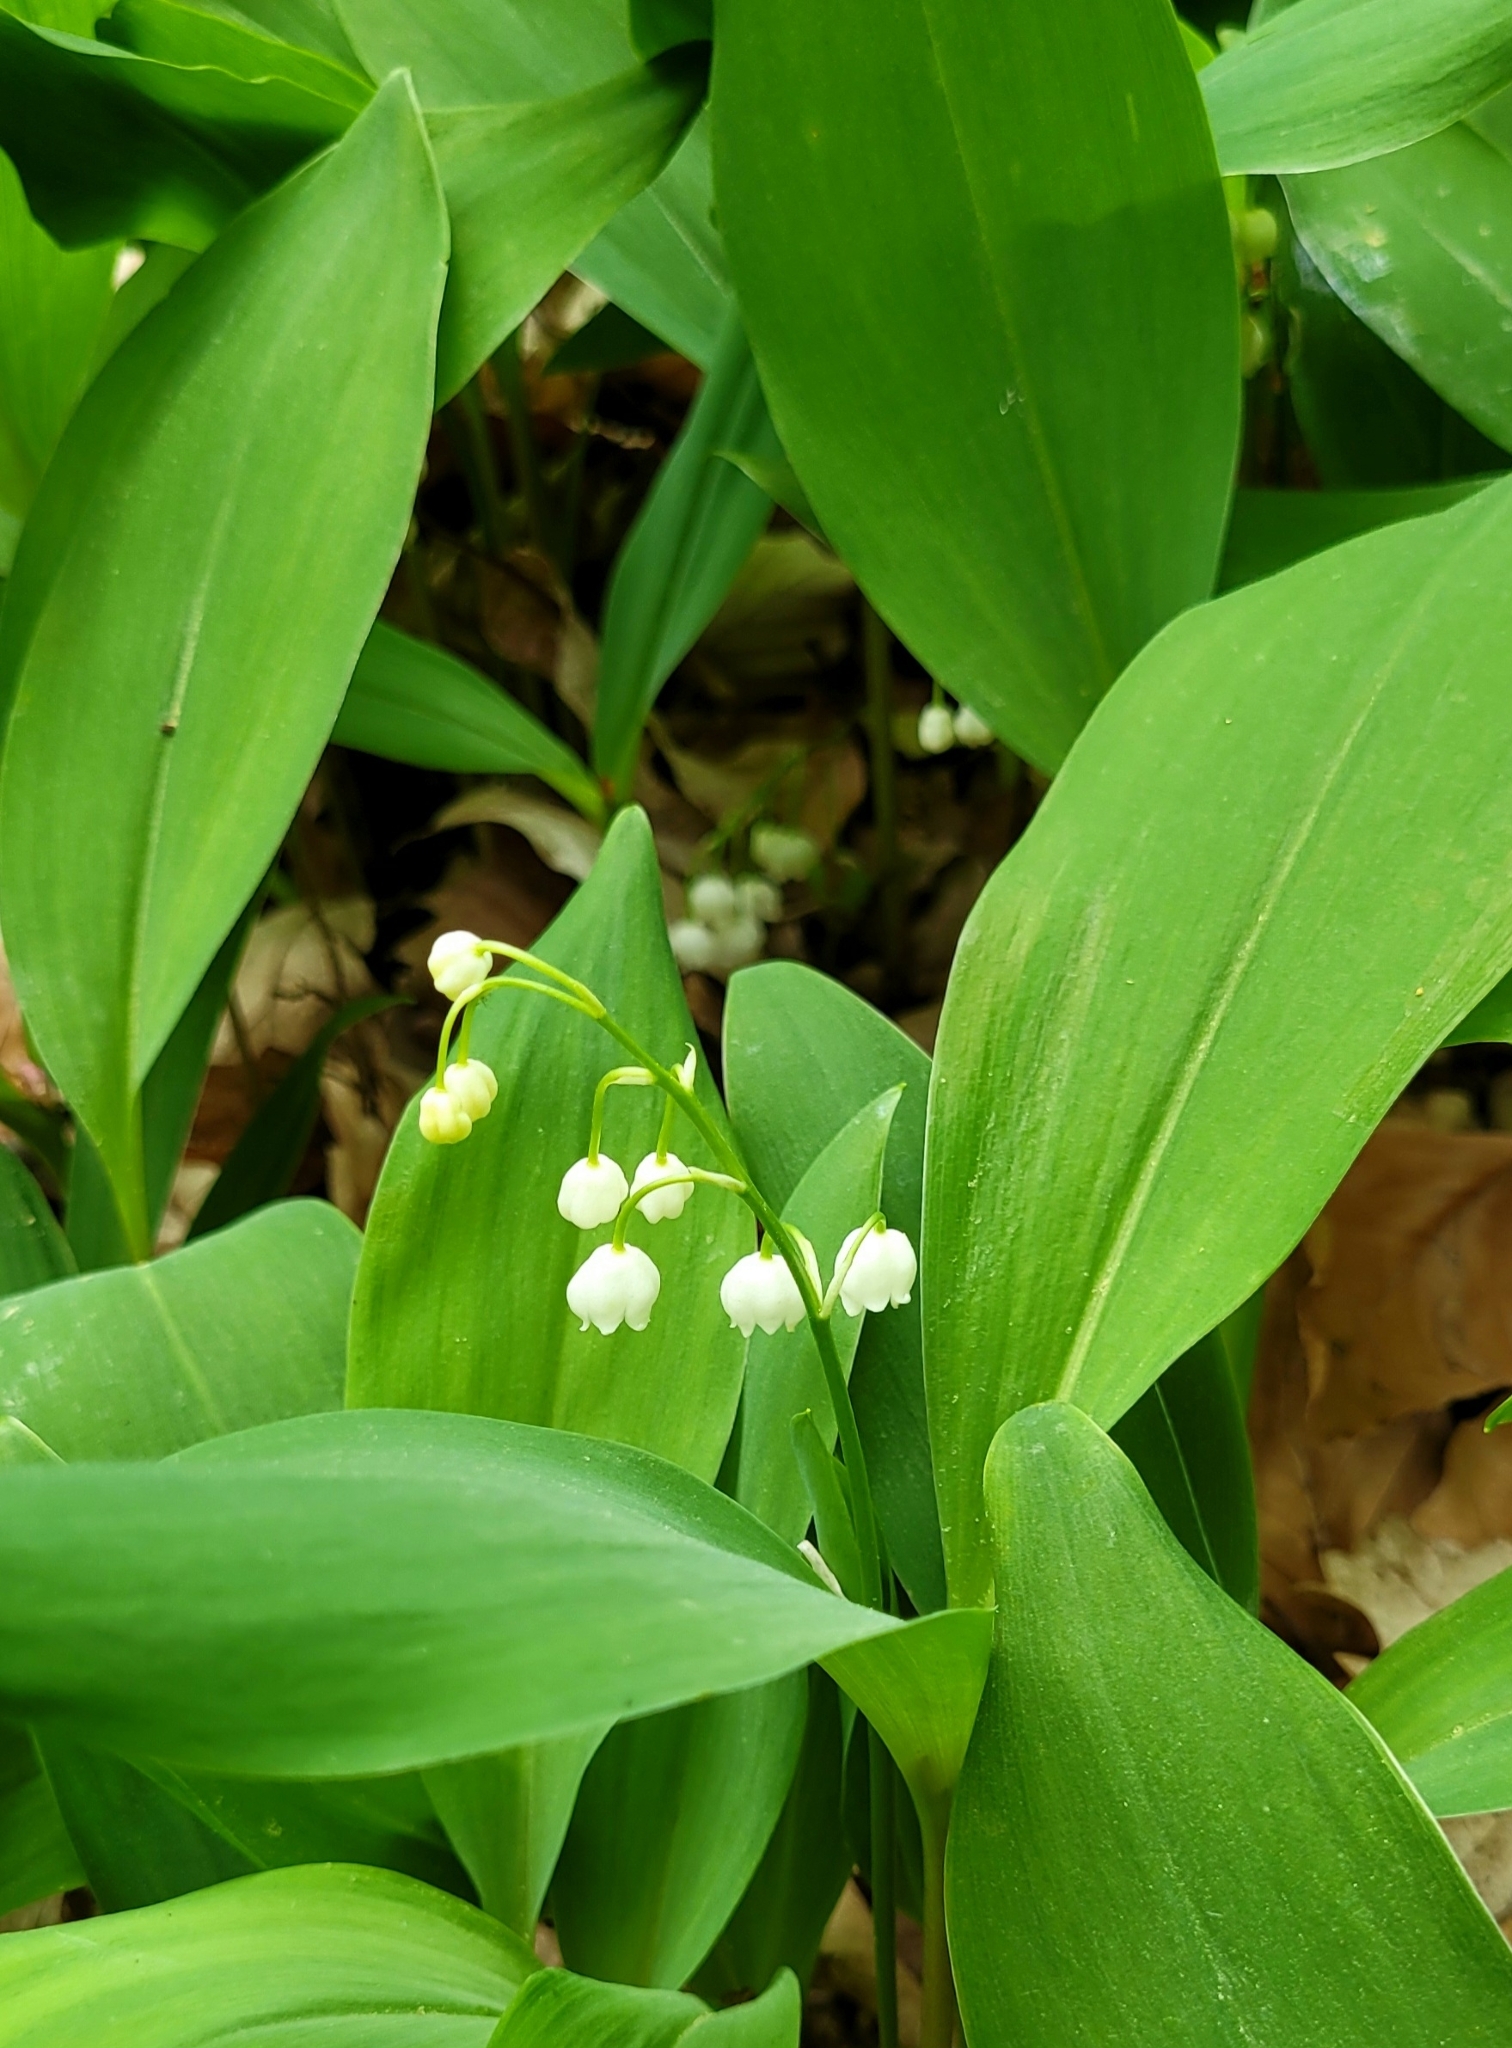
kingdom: Plantae
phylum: Tracheophyta
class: Liliopsida
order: Asparagales
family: Asparagaceae
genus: Convallaria
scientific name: Convallaria majalis
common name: Lily-of-the-valley
